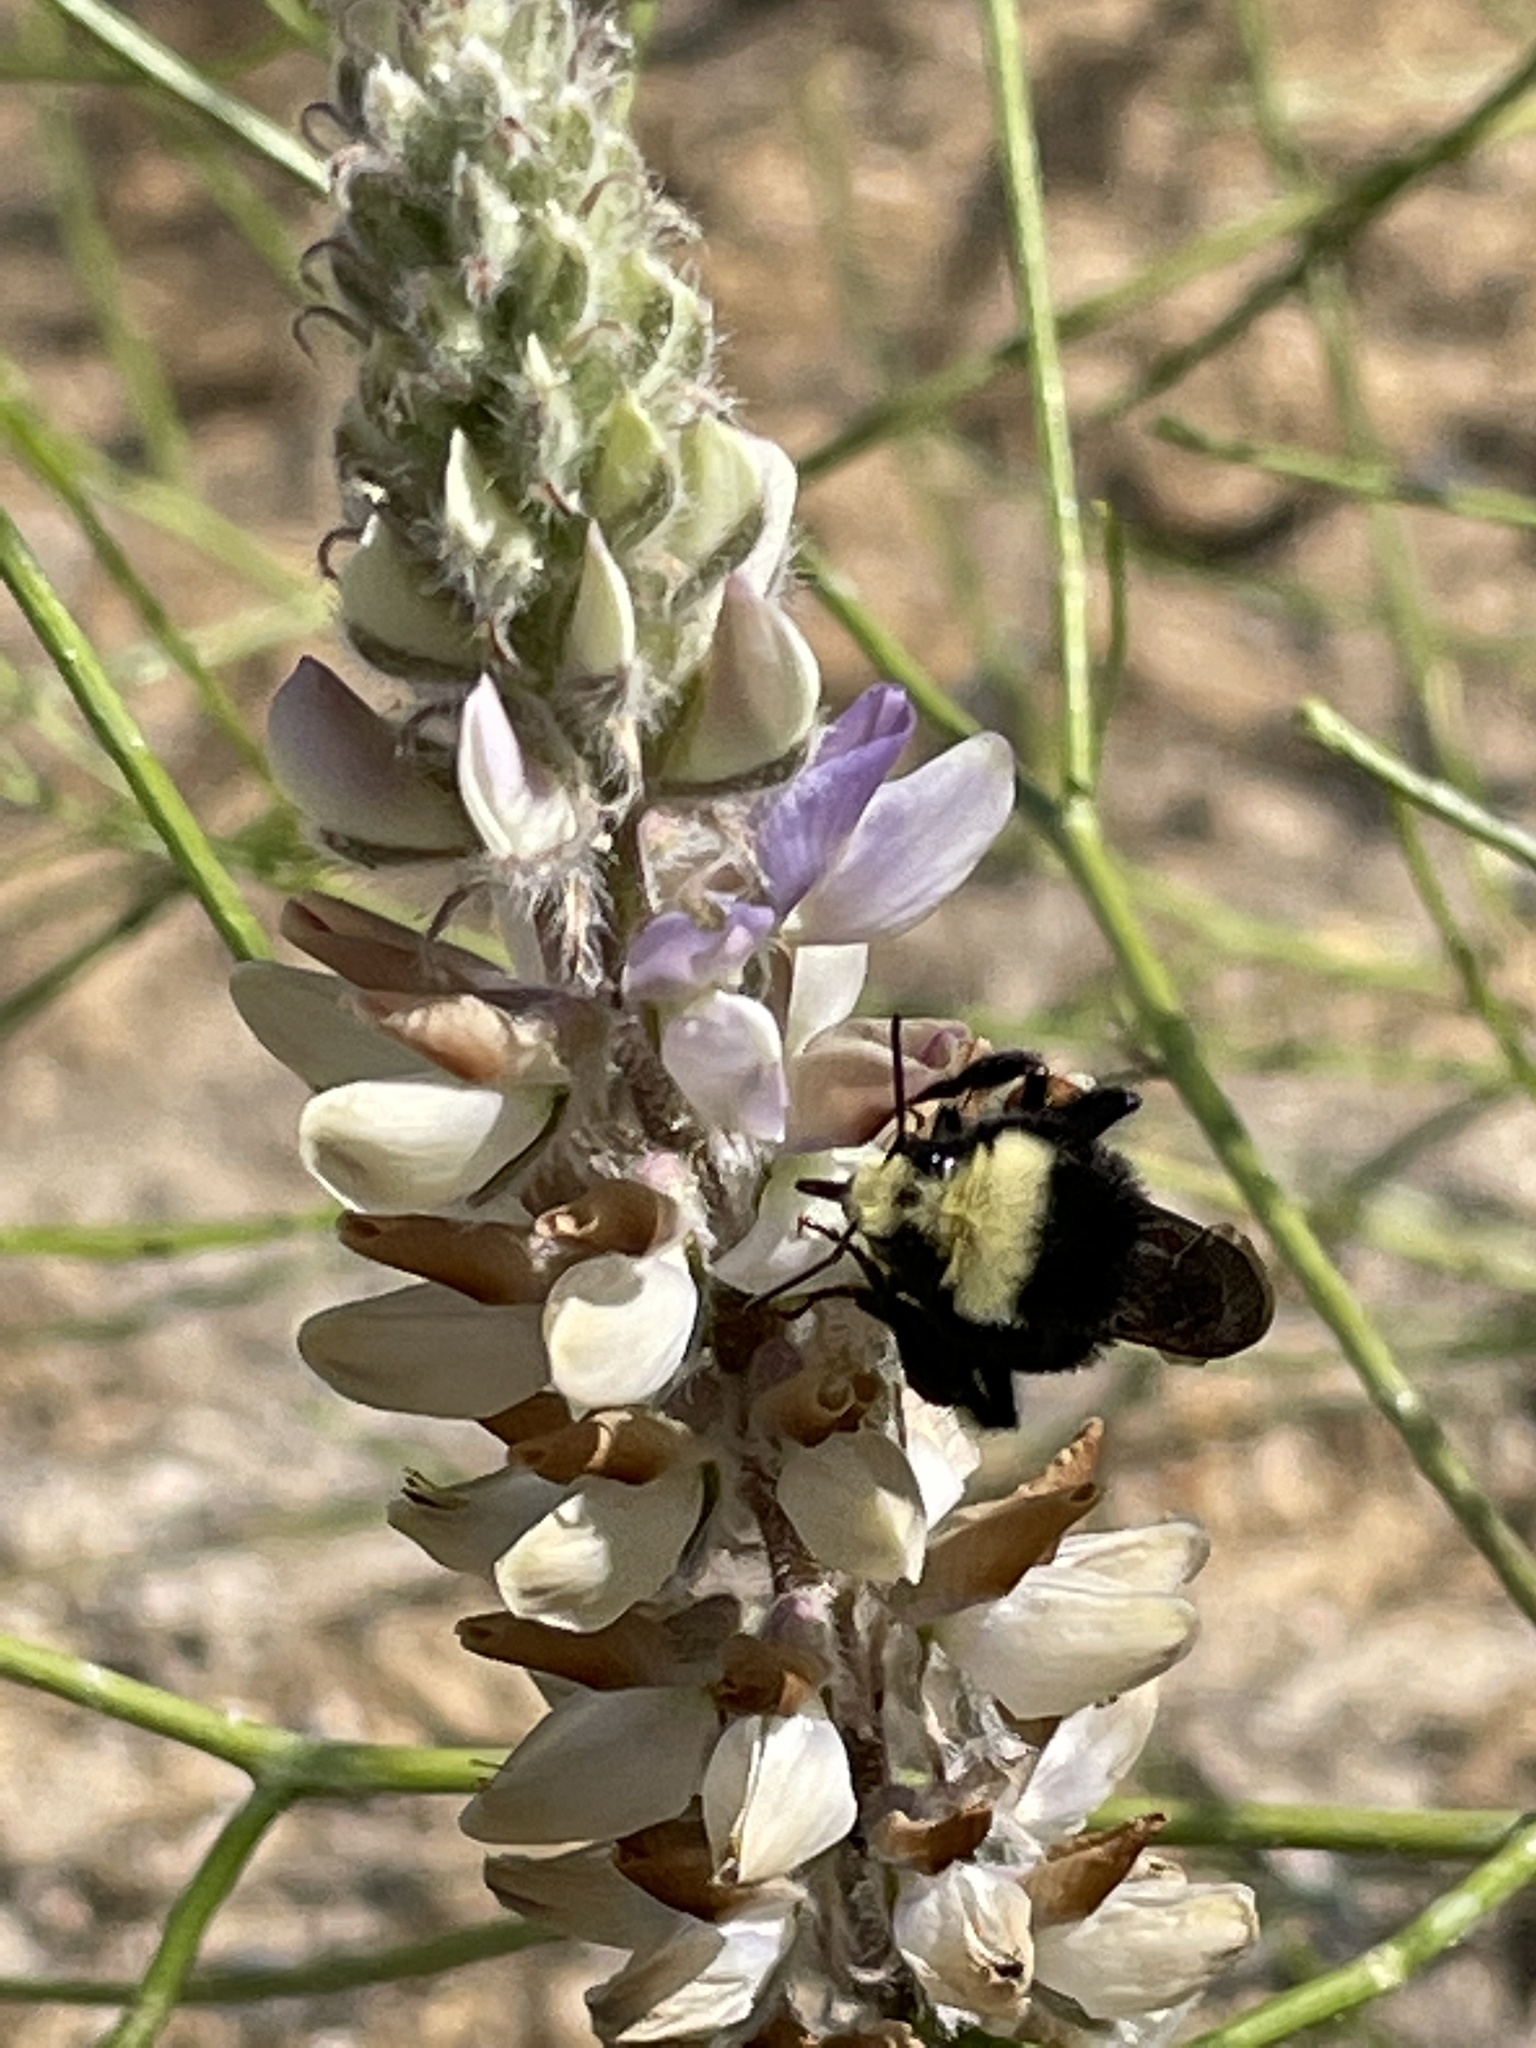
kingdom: Animalia
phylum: Arthropoda
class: Insecta
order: Hymenoptera
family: Apidae
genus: Bombus
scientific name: Bombus vosnesenskii
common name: Vosnesensky bumble bee
